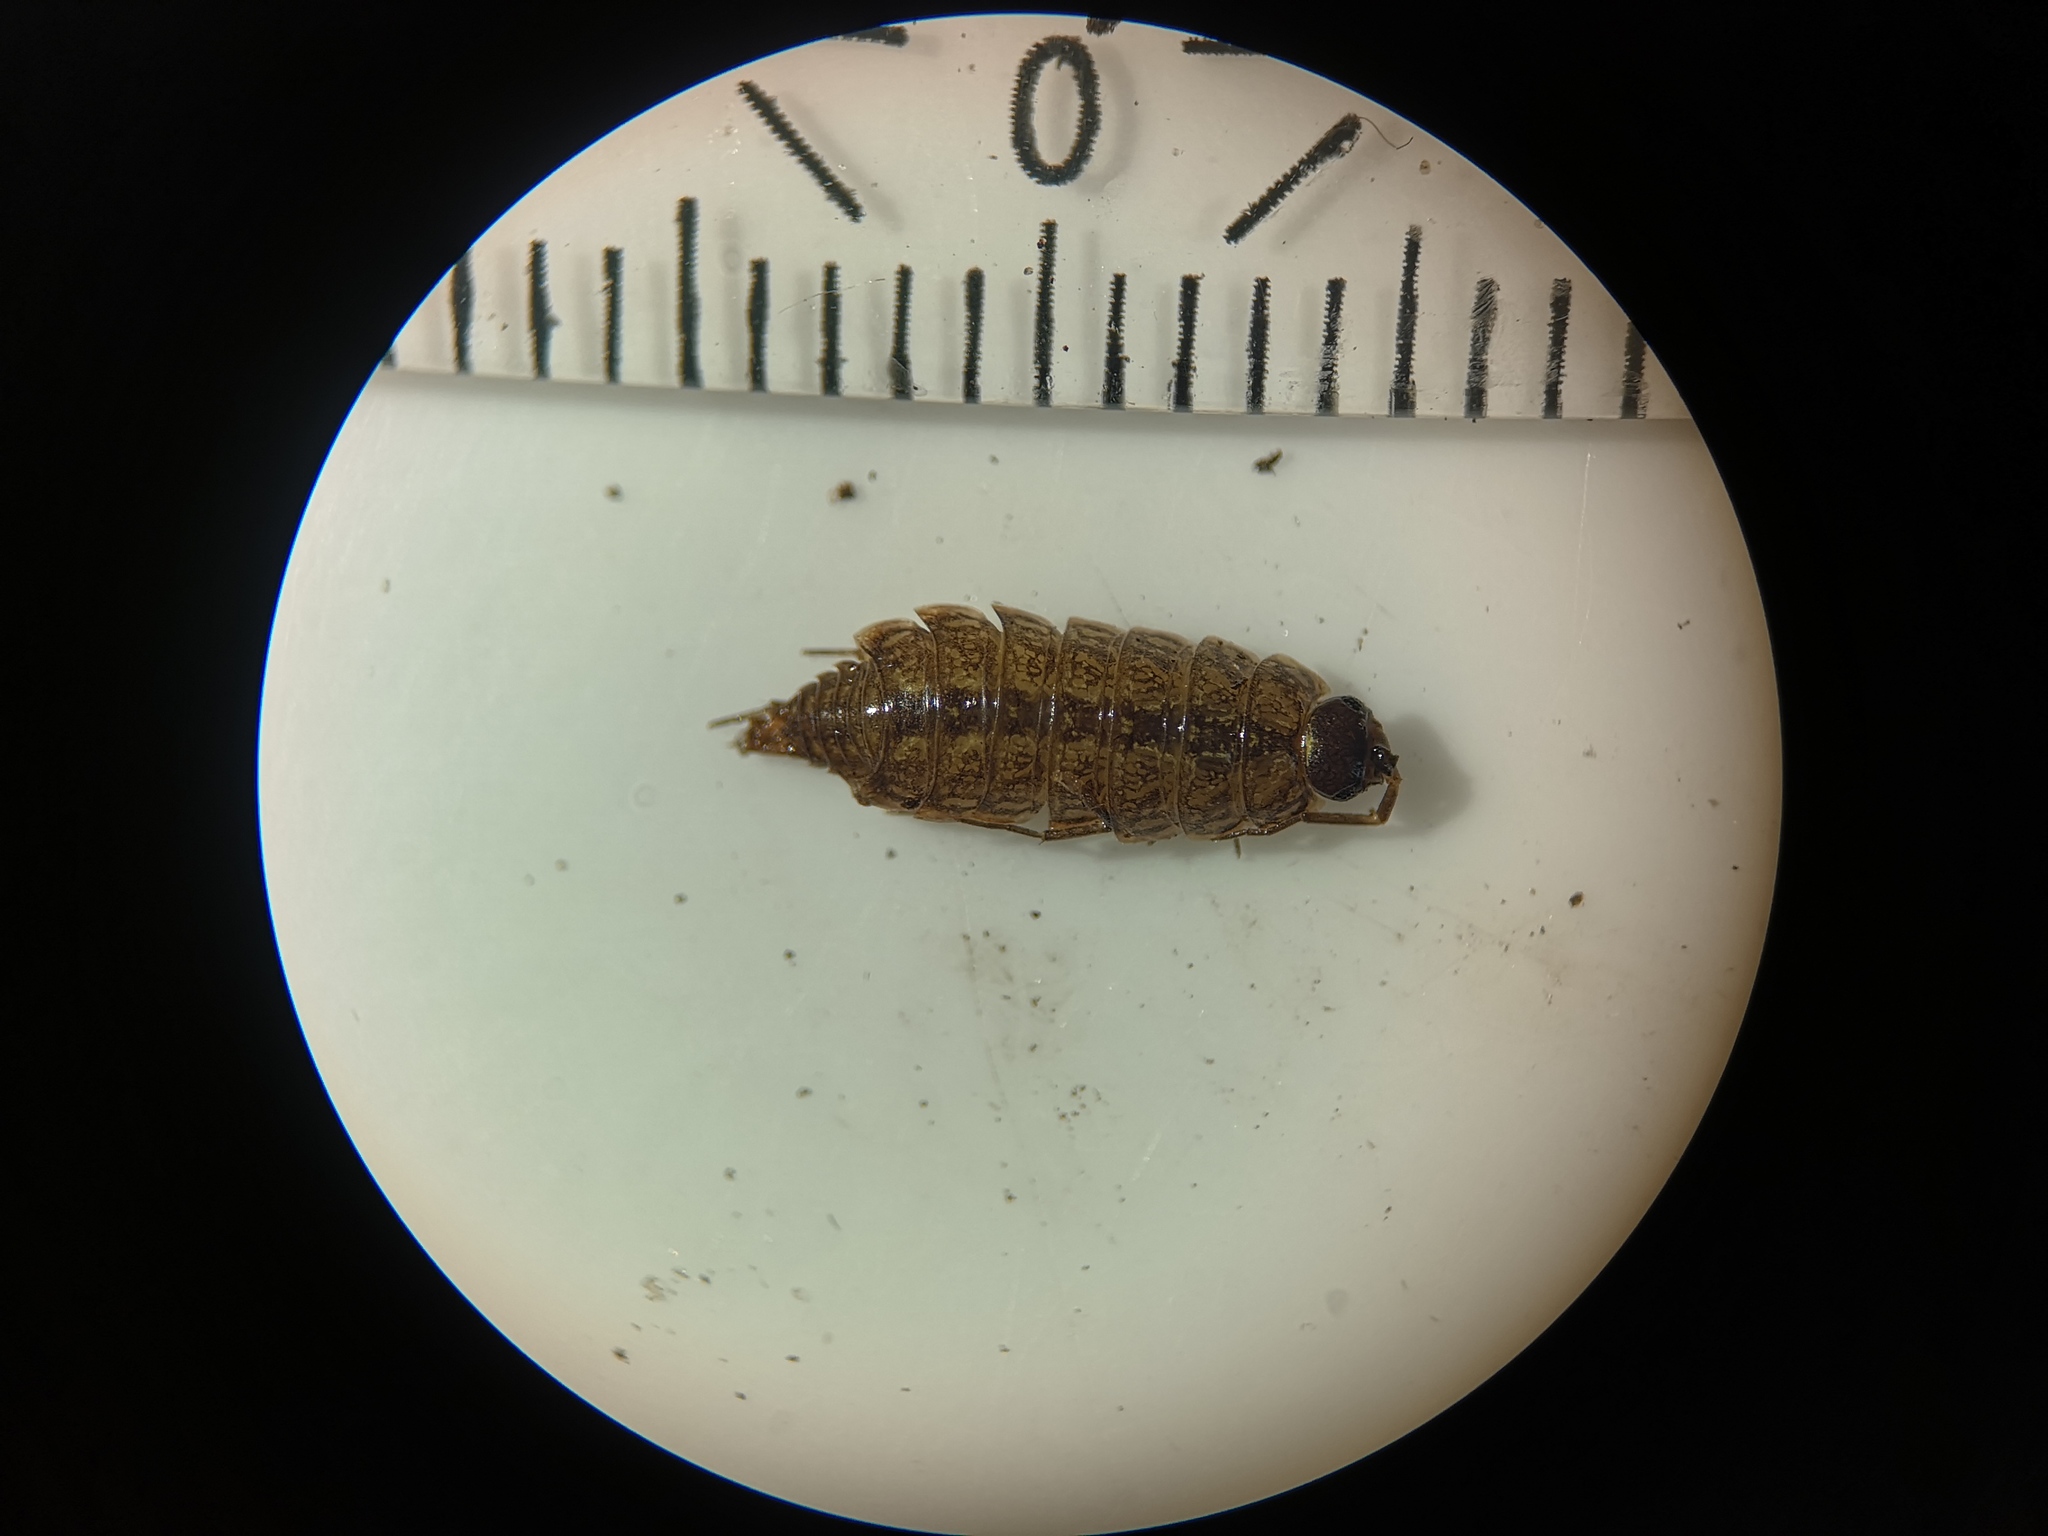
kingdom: Animalia
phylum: Arthropoda
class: Malacostraca
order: Isopoda
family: Philosciidae
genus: Philoscia
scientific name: Philoscia muscorum
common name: Common striped woodlouse
